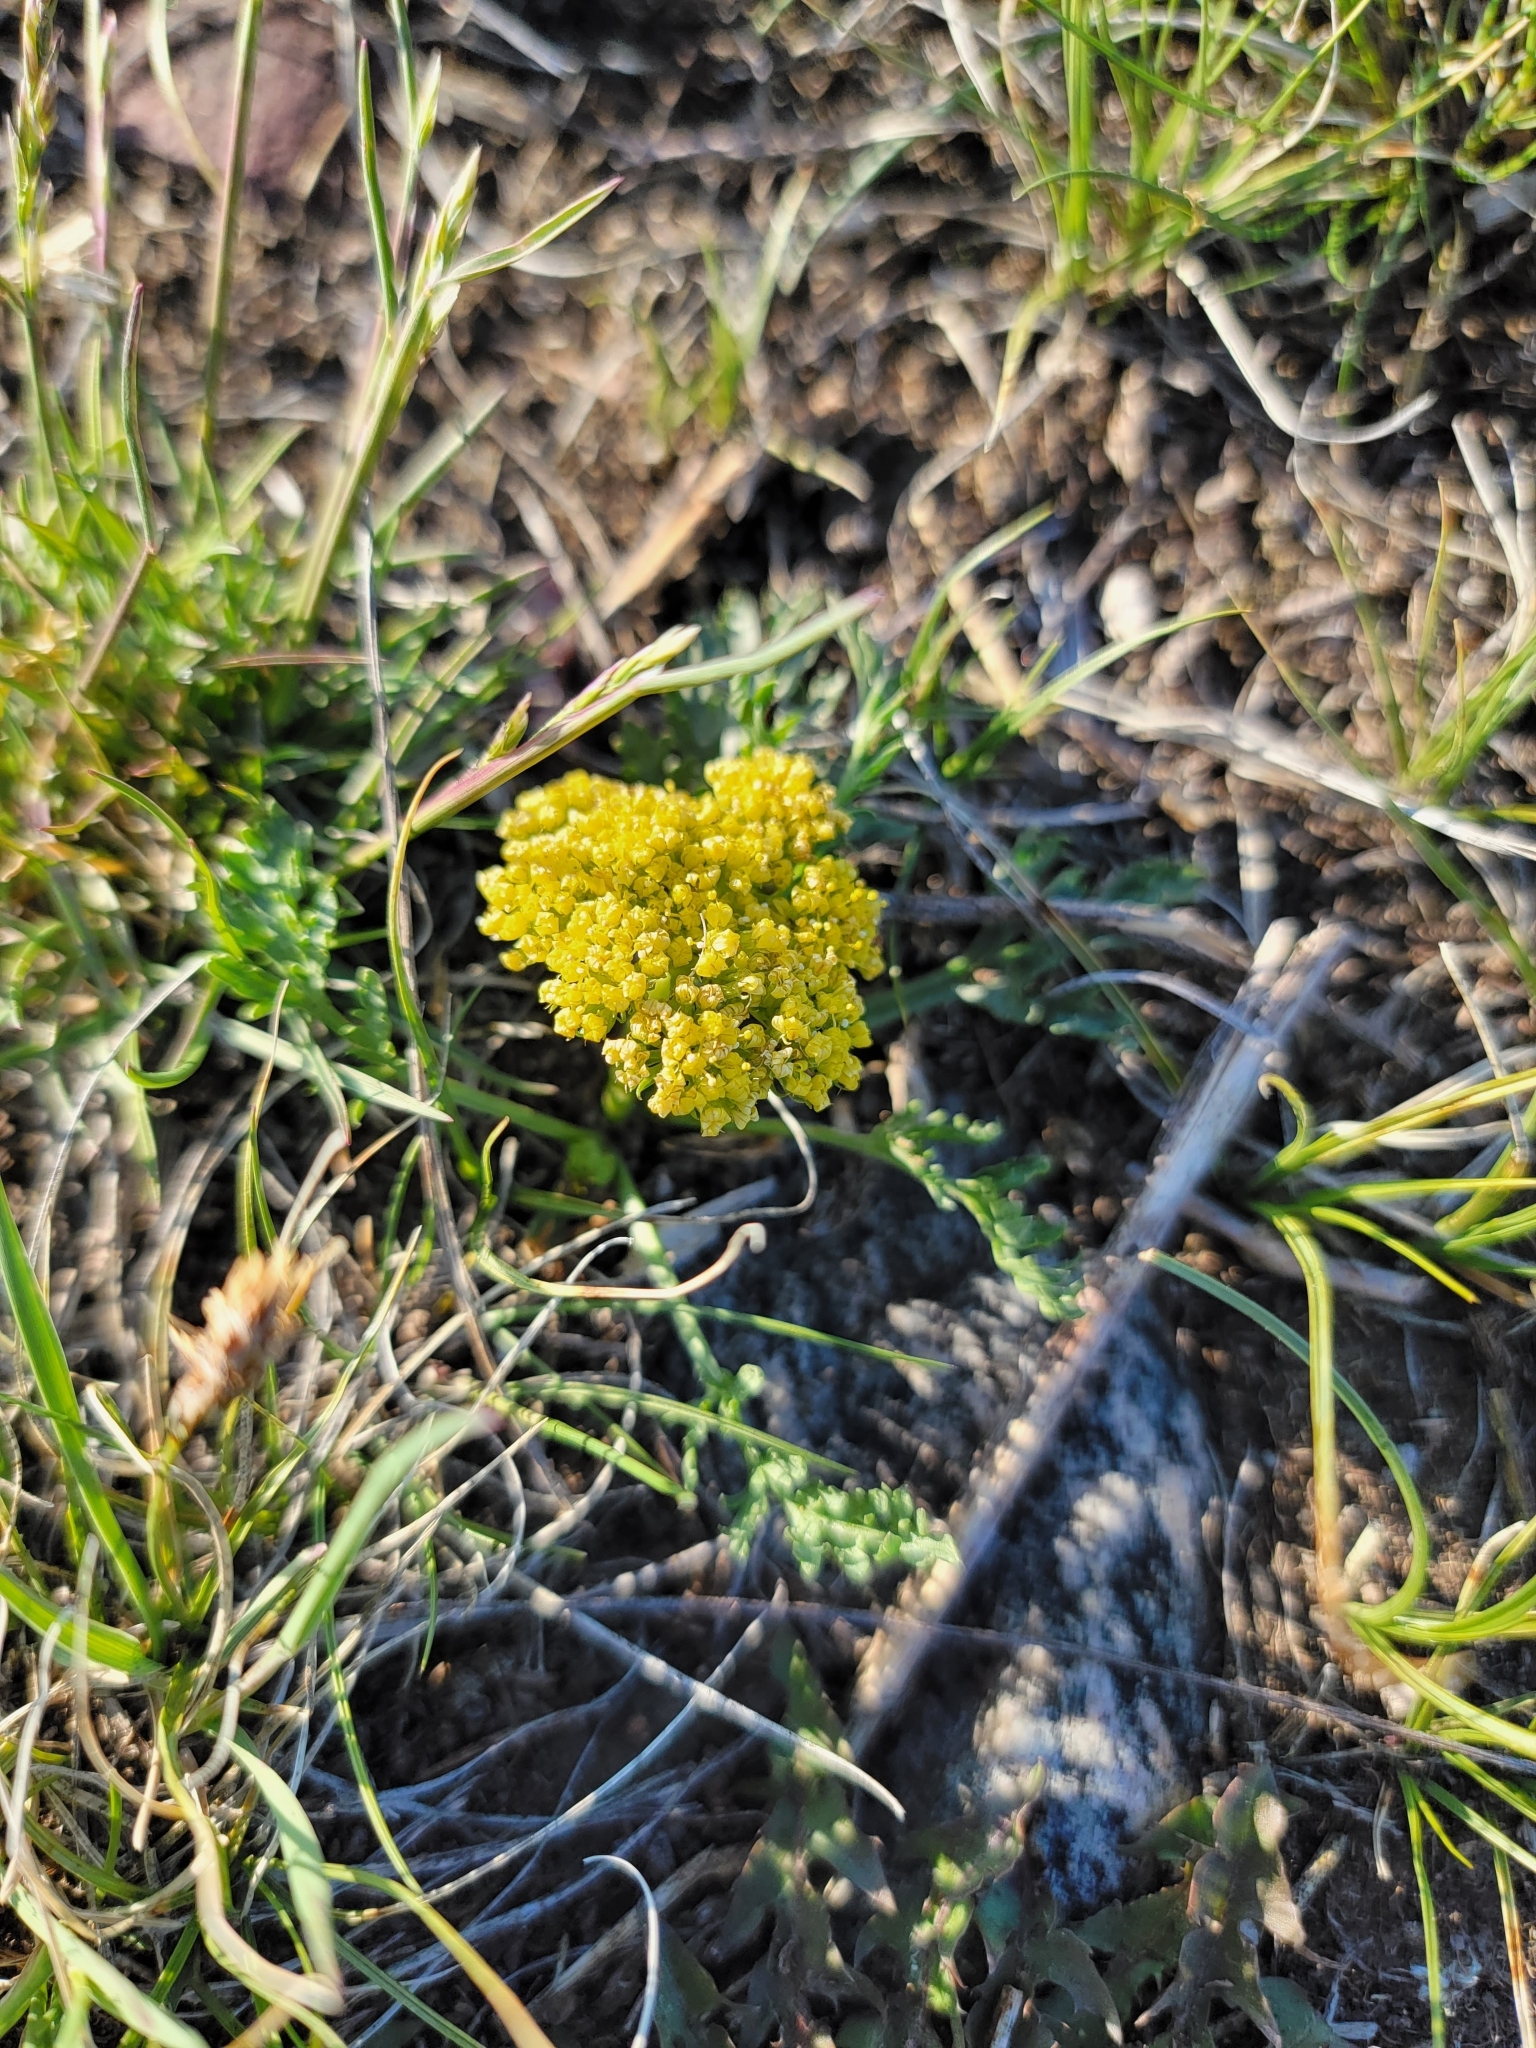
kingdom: Plantae
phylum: Tracheophyta
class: Magnoliopsida
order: Apiales
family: Apiaceae
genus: Musineon
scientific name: Musineon divaricatum
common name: Plains musineon
